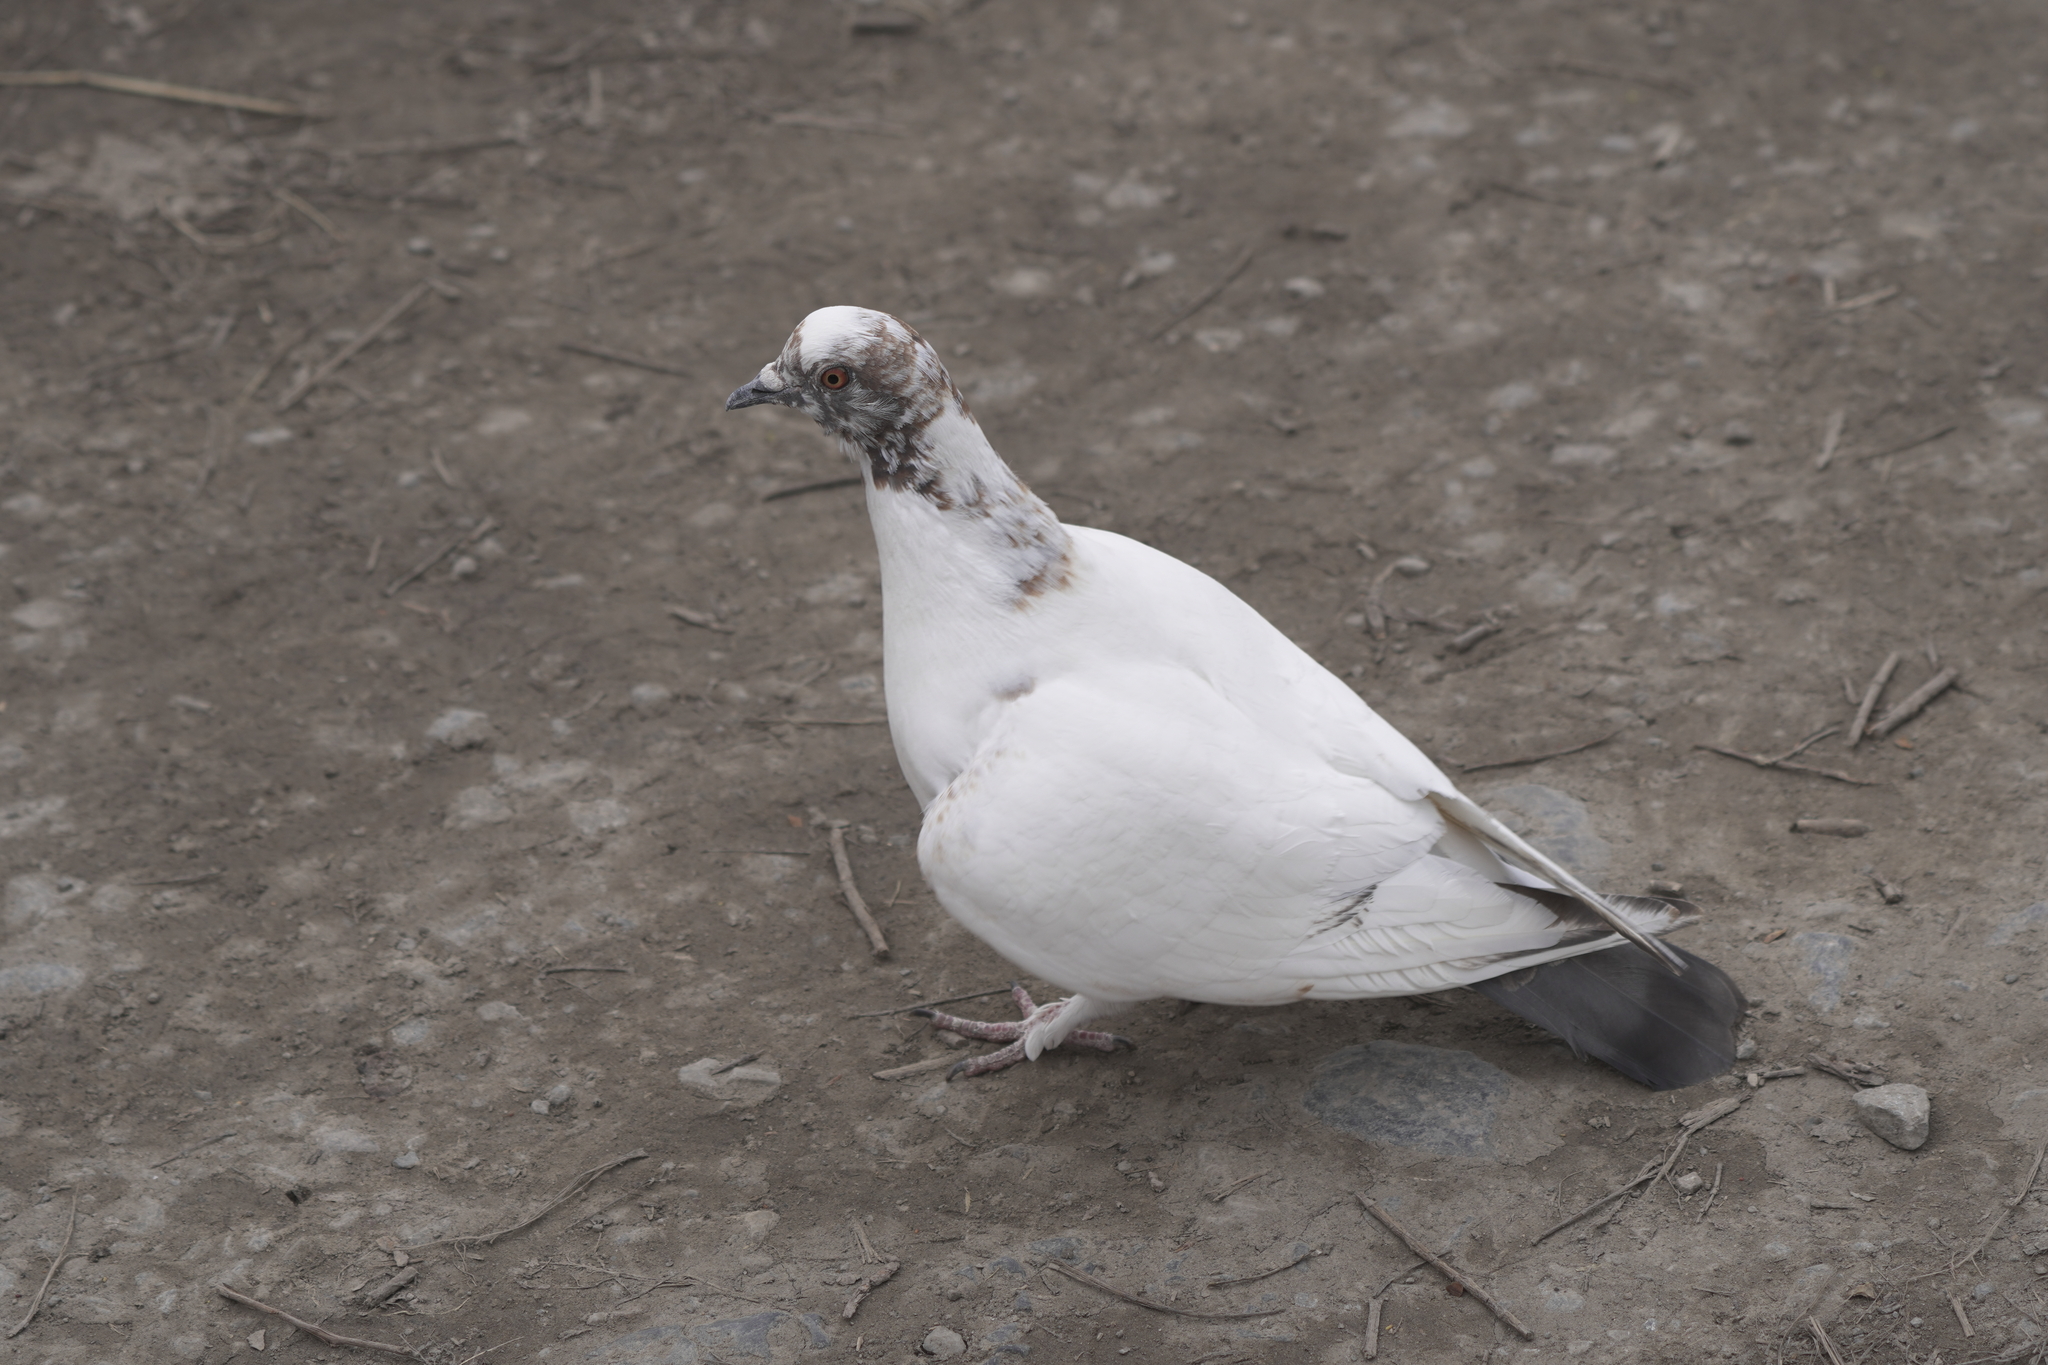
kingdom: Animalia
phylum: Chordata
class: Aves
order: Columbiformes
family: Columbidae
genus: Columba
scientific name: Columba livia
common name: Rock pigeon
